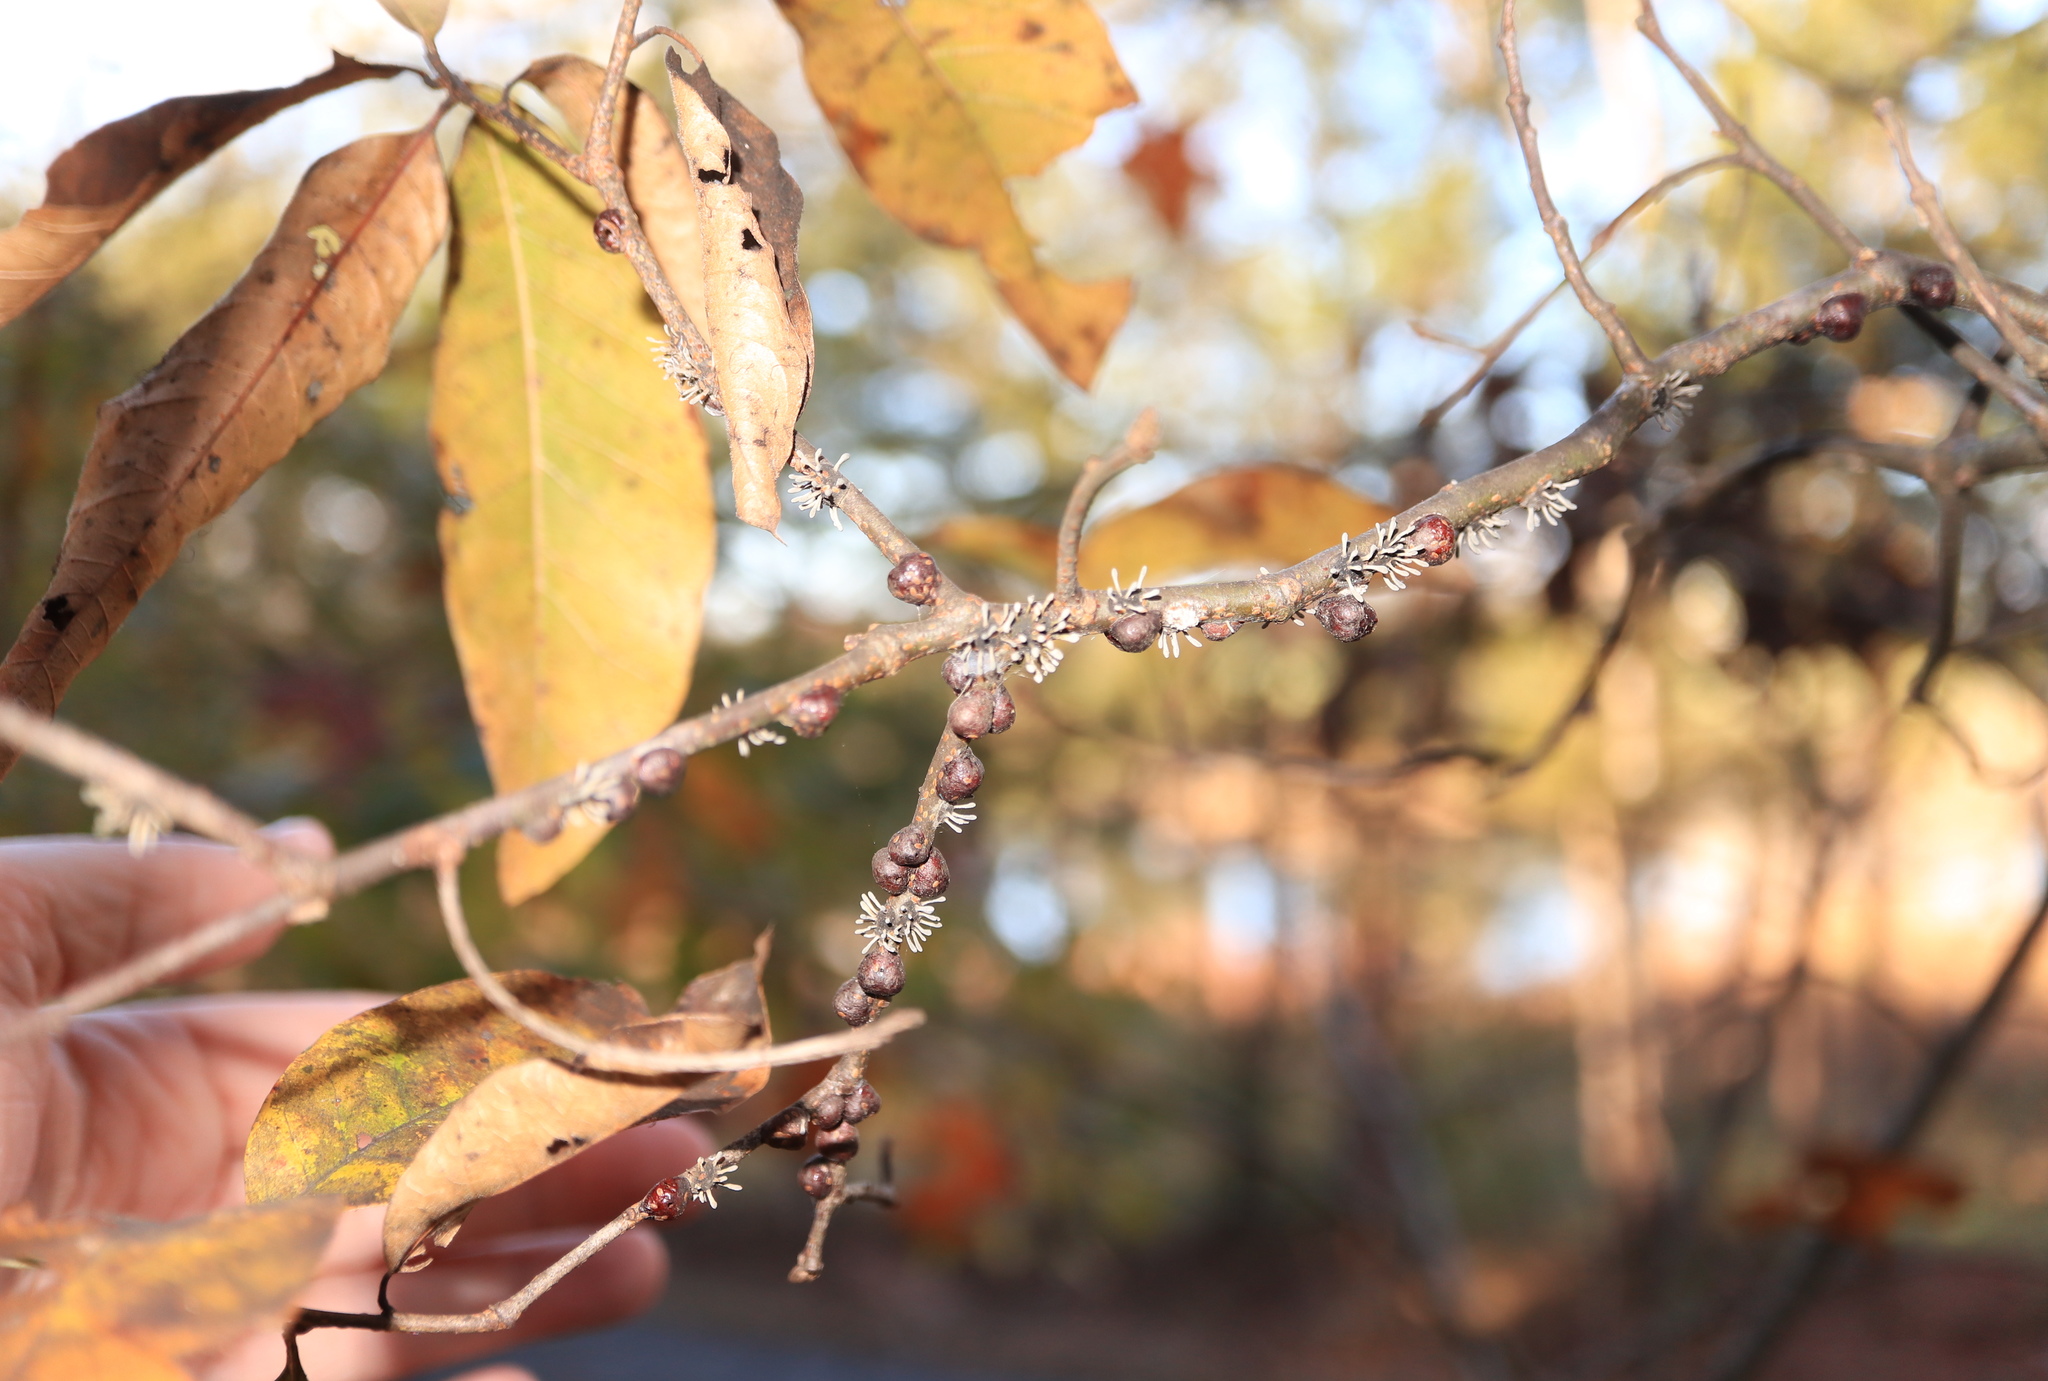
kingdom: Fungi
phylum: Ascomycota
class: Sordariomycetes
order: Hypocreales
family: Ophiocordycipitaceae
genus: Ophiocordyceps
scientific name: Ophiocordyceps clavulata
